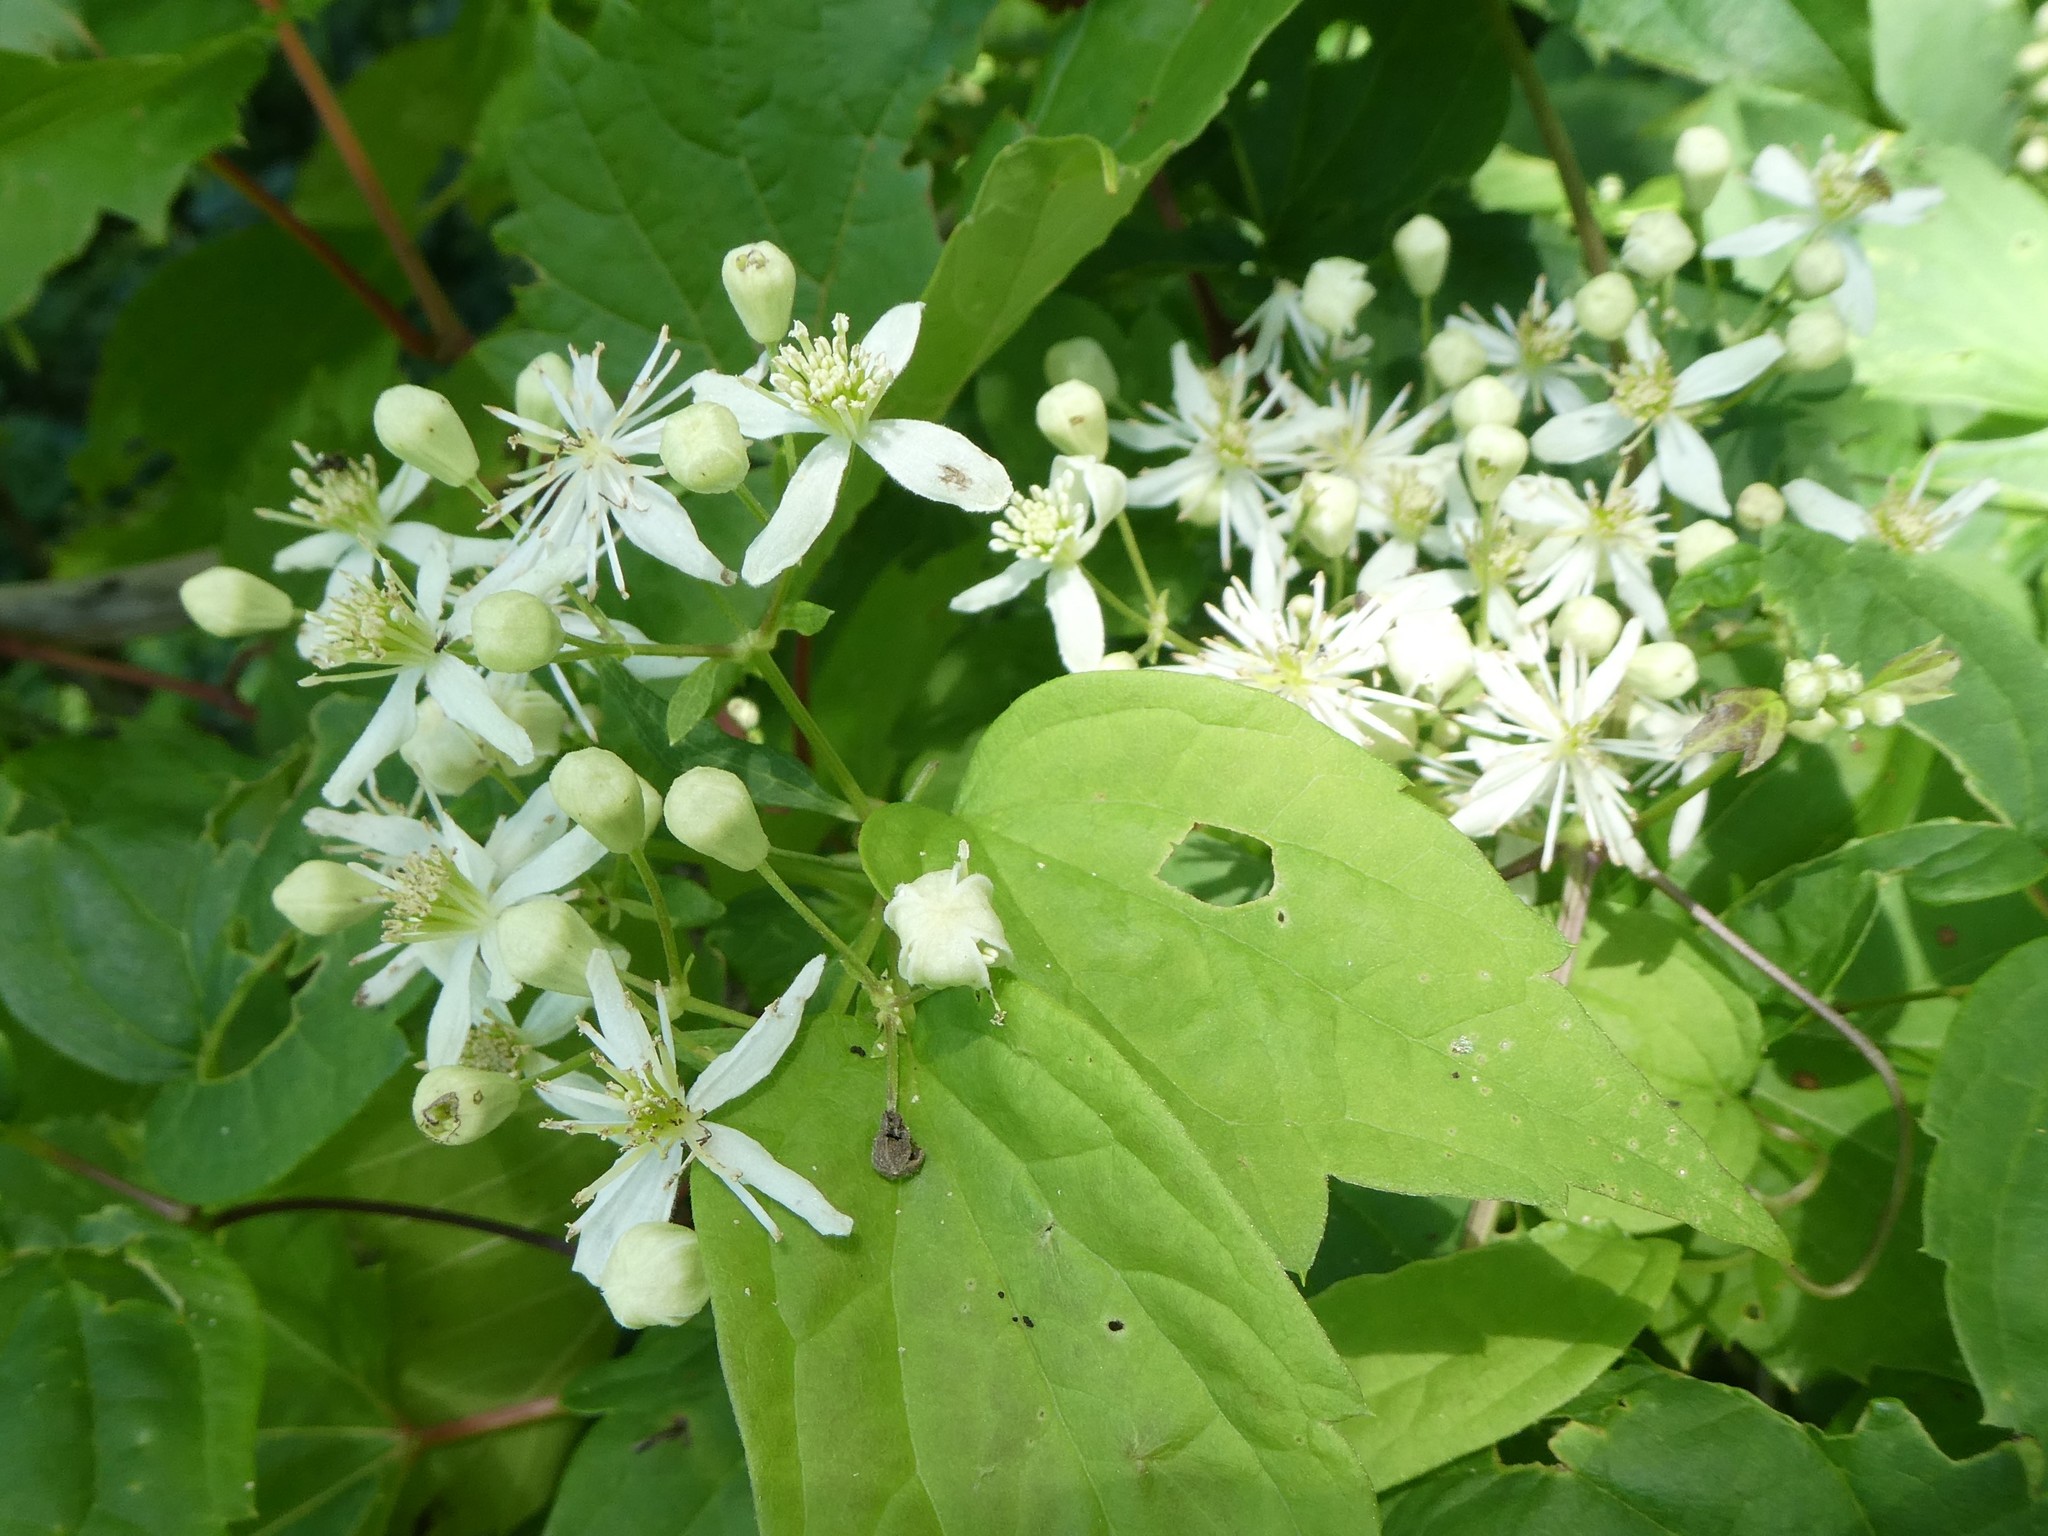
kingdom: Plantae
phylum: Tracheophyta
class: Magnoliopsida
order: Ranunculales
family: Ranunculaceae
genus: Clematis
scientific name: Clematis virginiana
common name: Virgin's-bower
